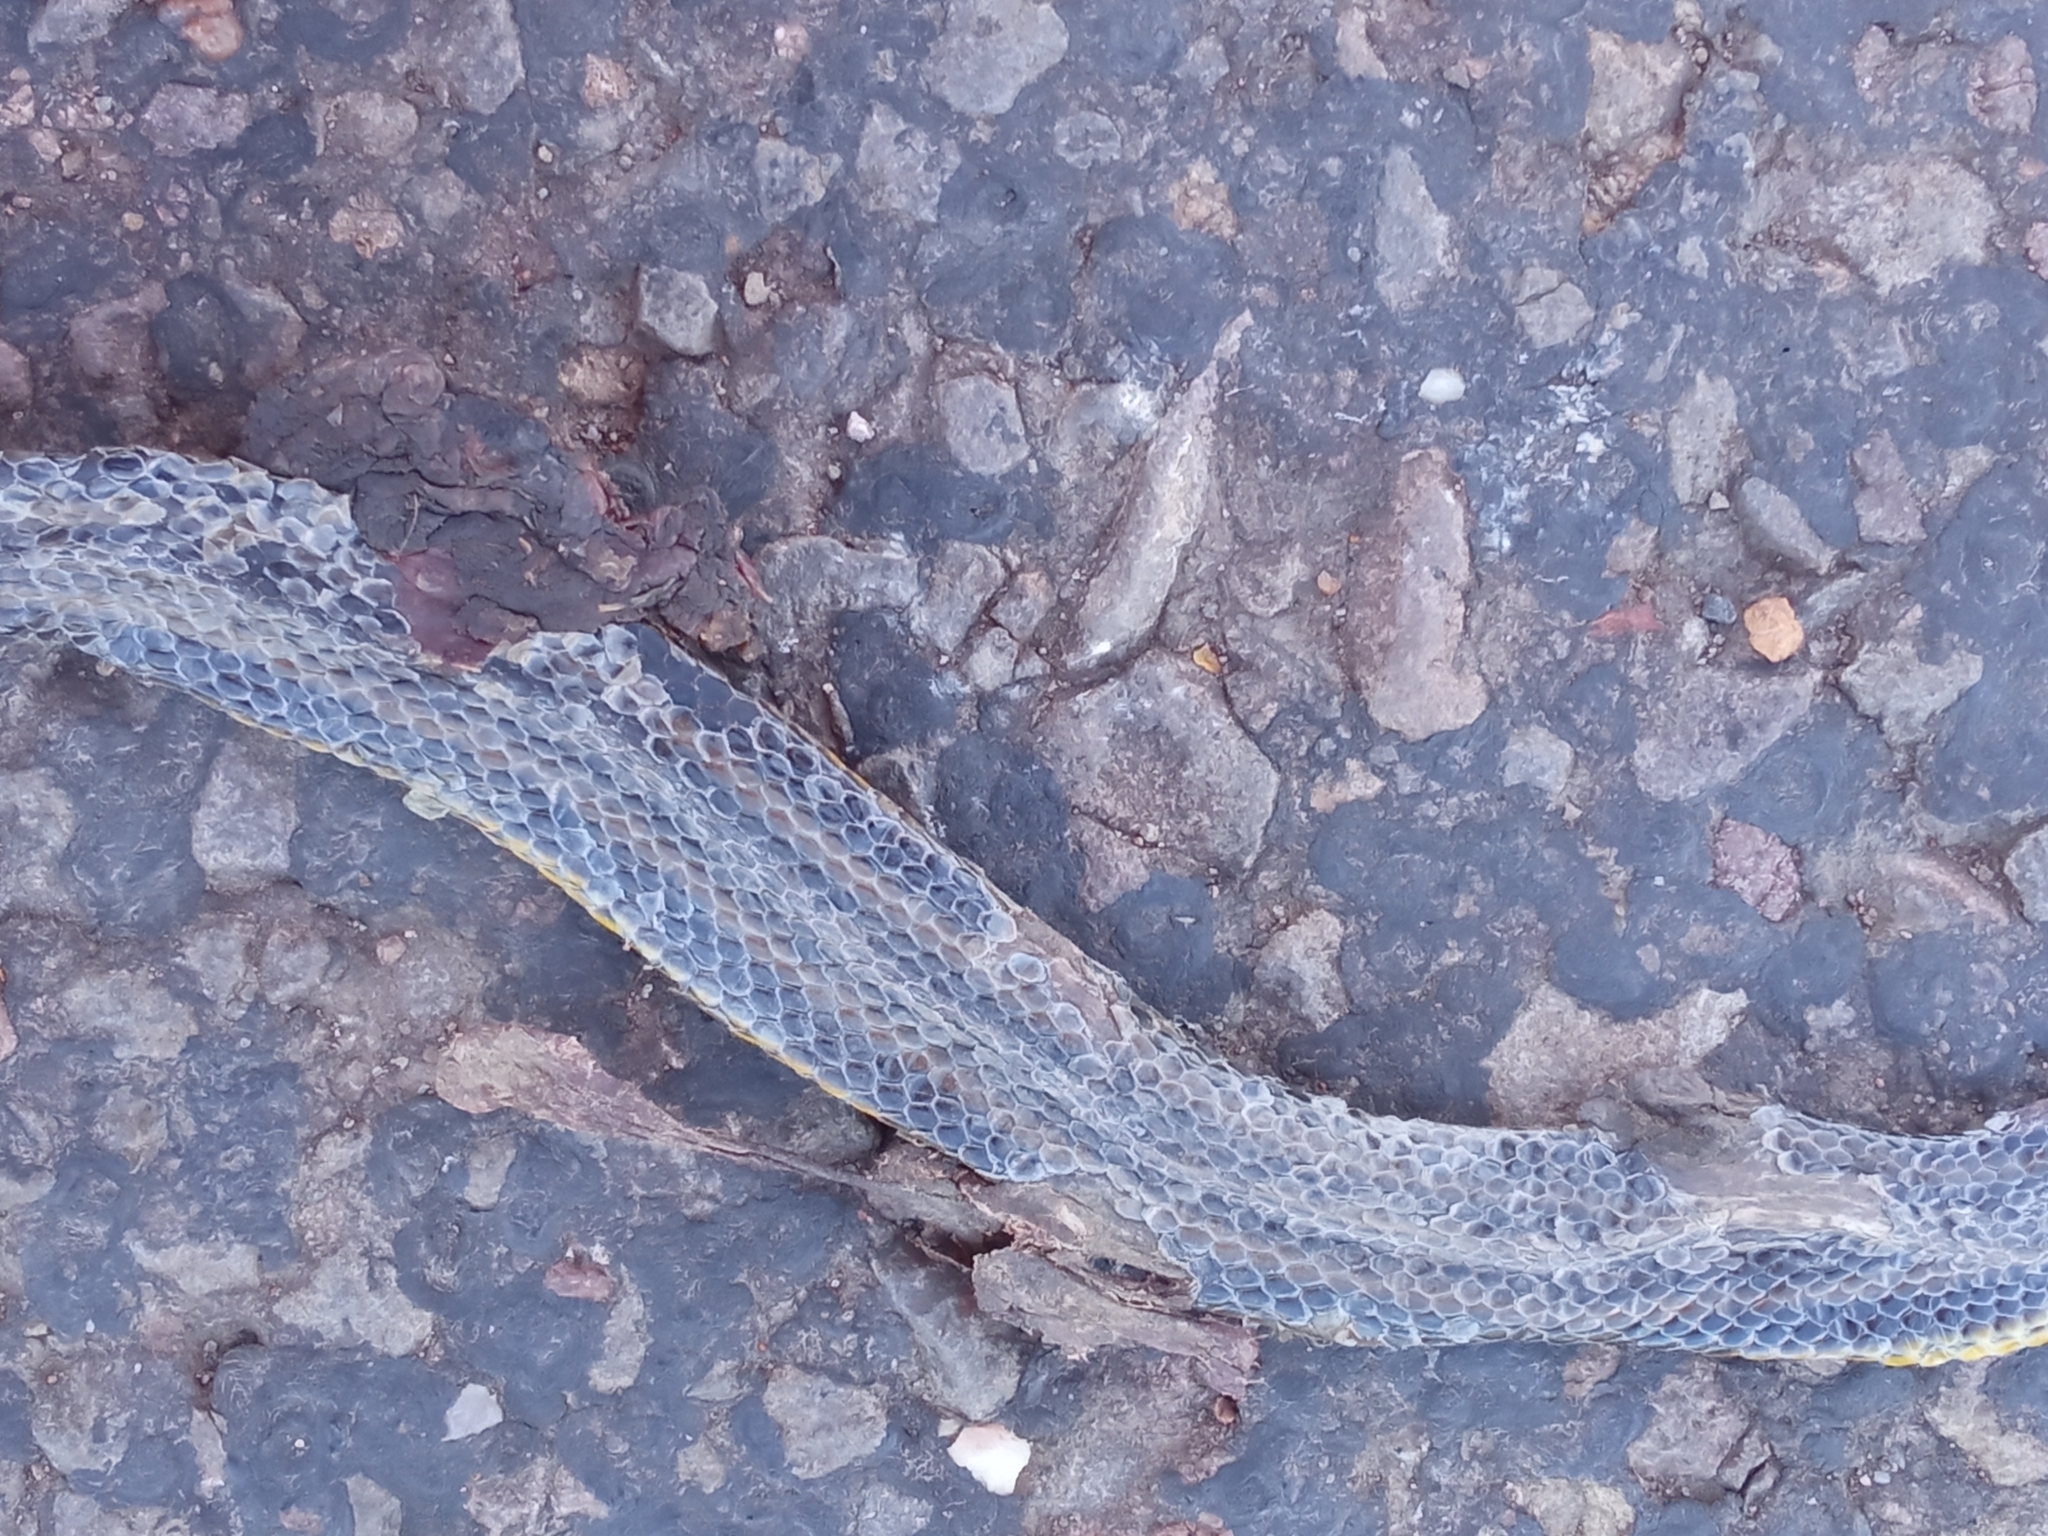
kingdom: Animalia
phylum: Chordata
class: Squamata
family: Colubridae
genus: Helicops
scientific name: Helicops infrataeniatus
